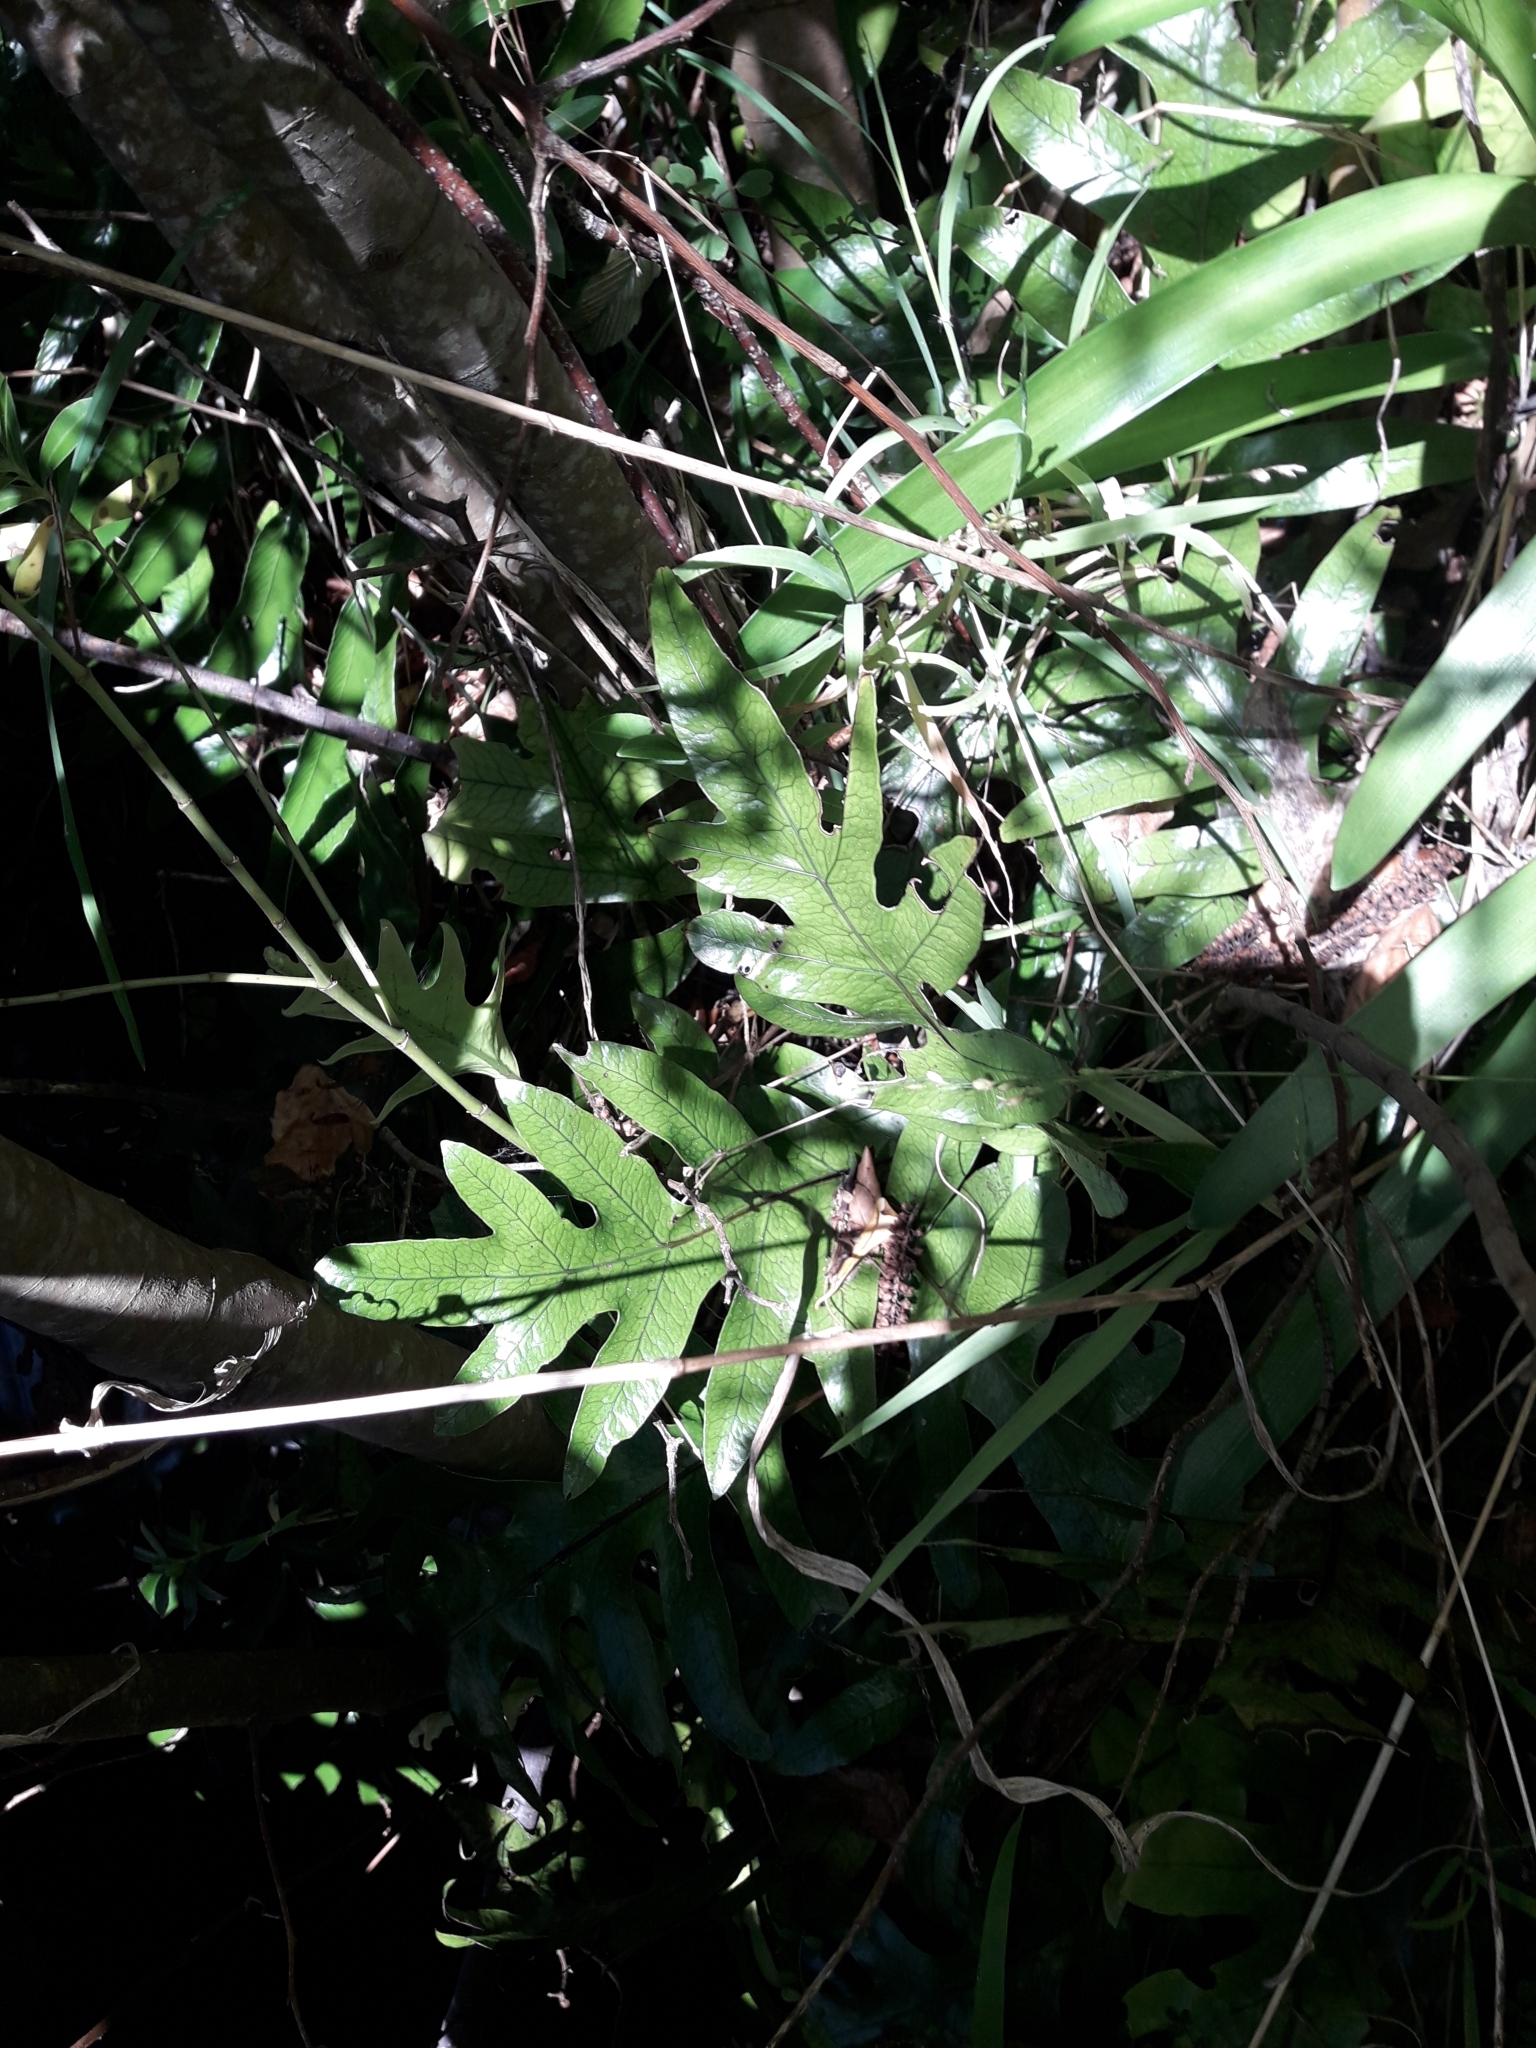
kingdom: Plantae
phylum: Tracheophyta
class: Polypodiopsida
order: Polypodiales
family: Polypodiaceae
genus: Lecanopteris
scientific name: Lecanopteris pustulata
